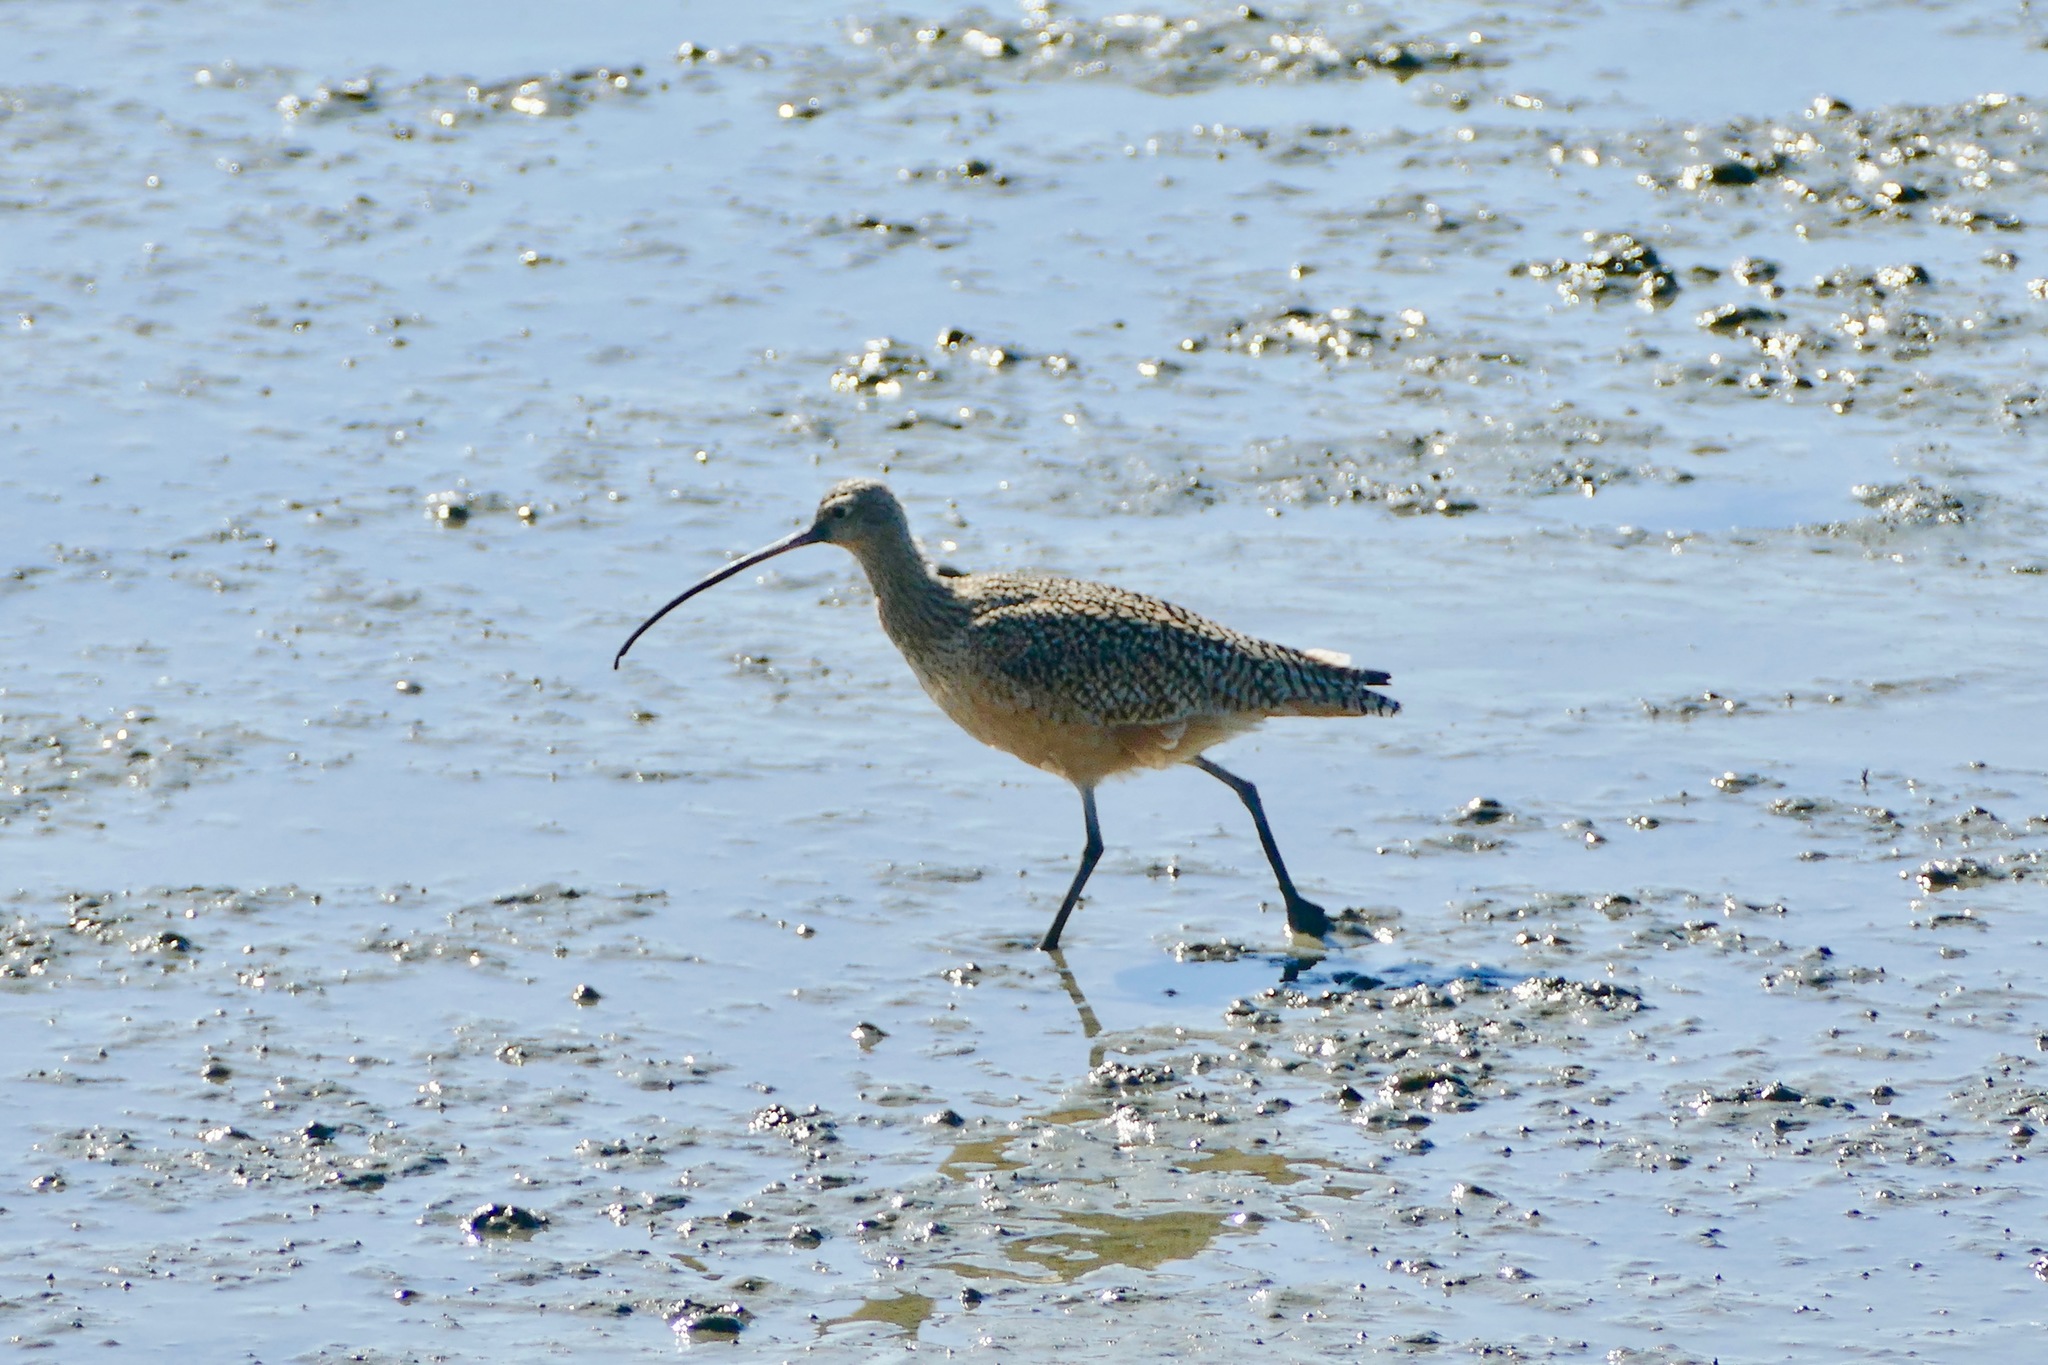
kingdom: Animalia
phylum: Chordata
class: Aves
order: Charadriiformes
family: Scolopacidae
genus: Numenius
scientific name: Numenius americanus
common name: Long-billed curlew
